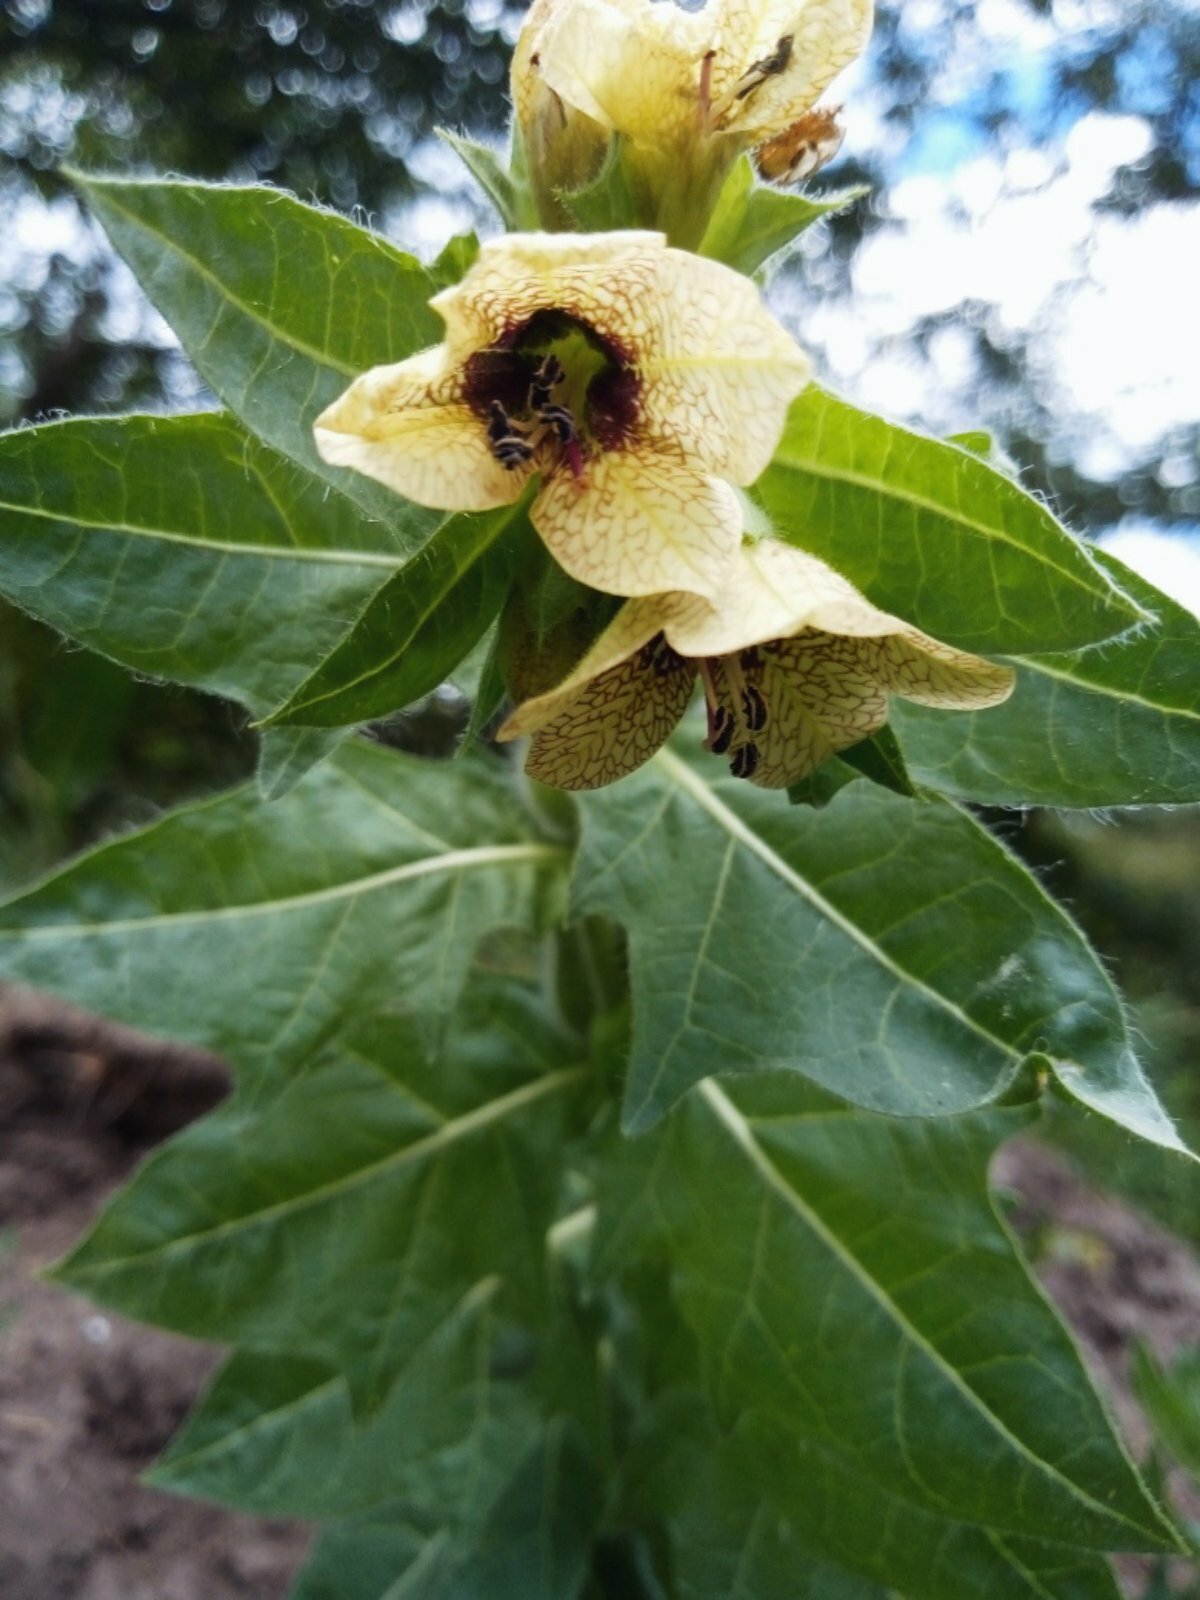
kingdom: Plantae
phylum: Tracheophyta
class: Magnoliopsida
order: Solanales
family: Solanaceae
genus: Hyoscyamus
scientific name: Hyoscyamus niger
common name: Henbane
